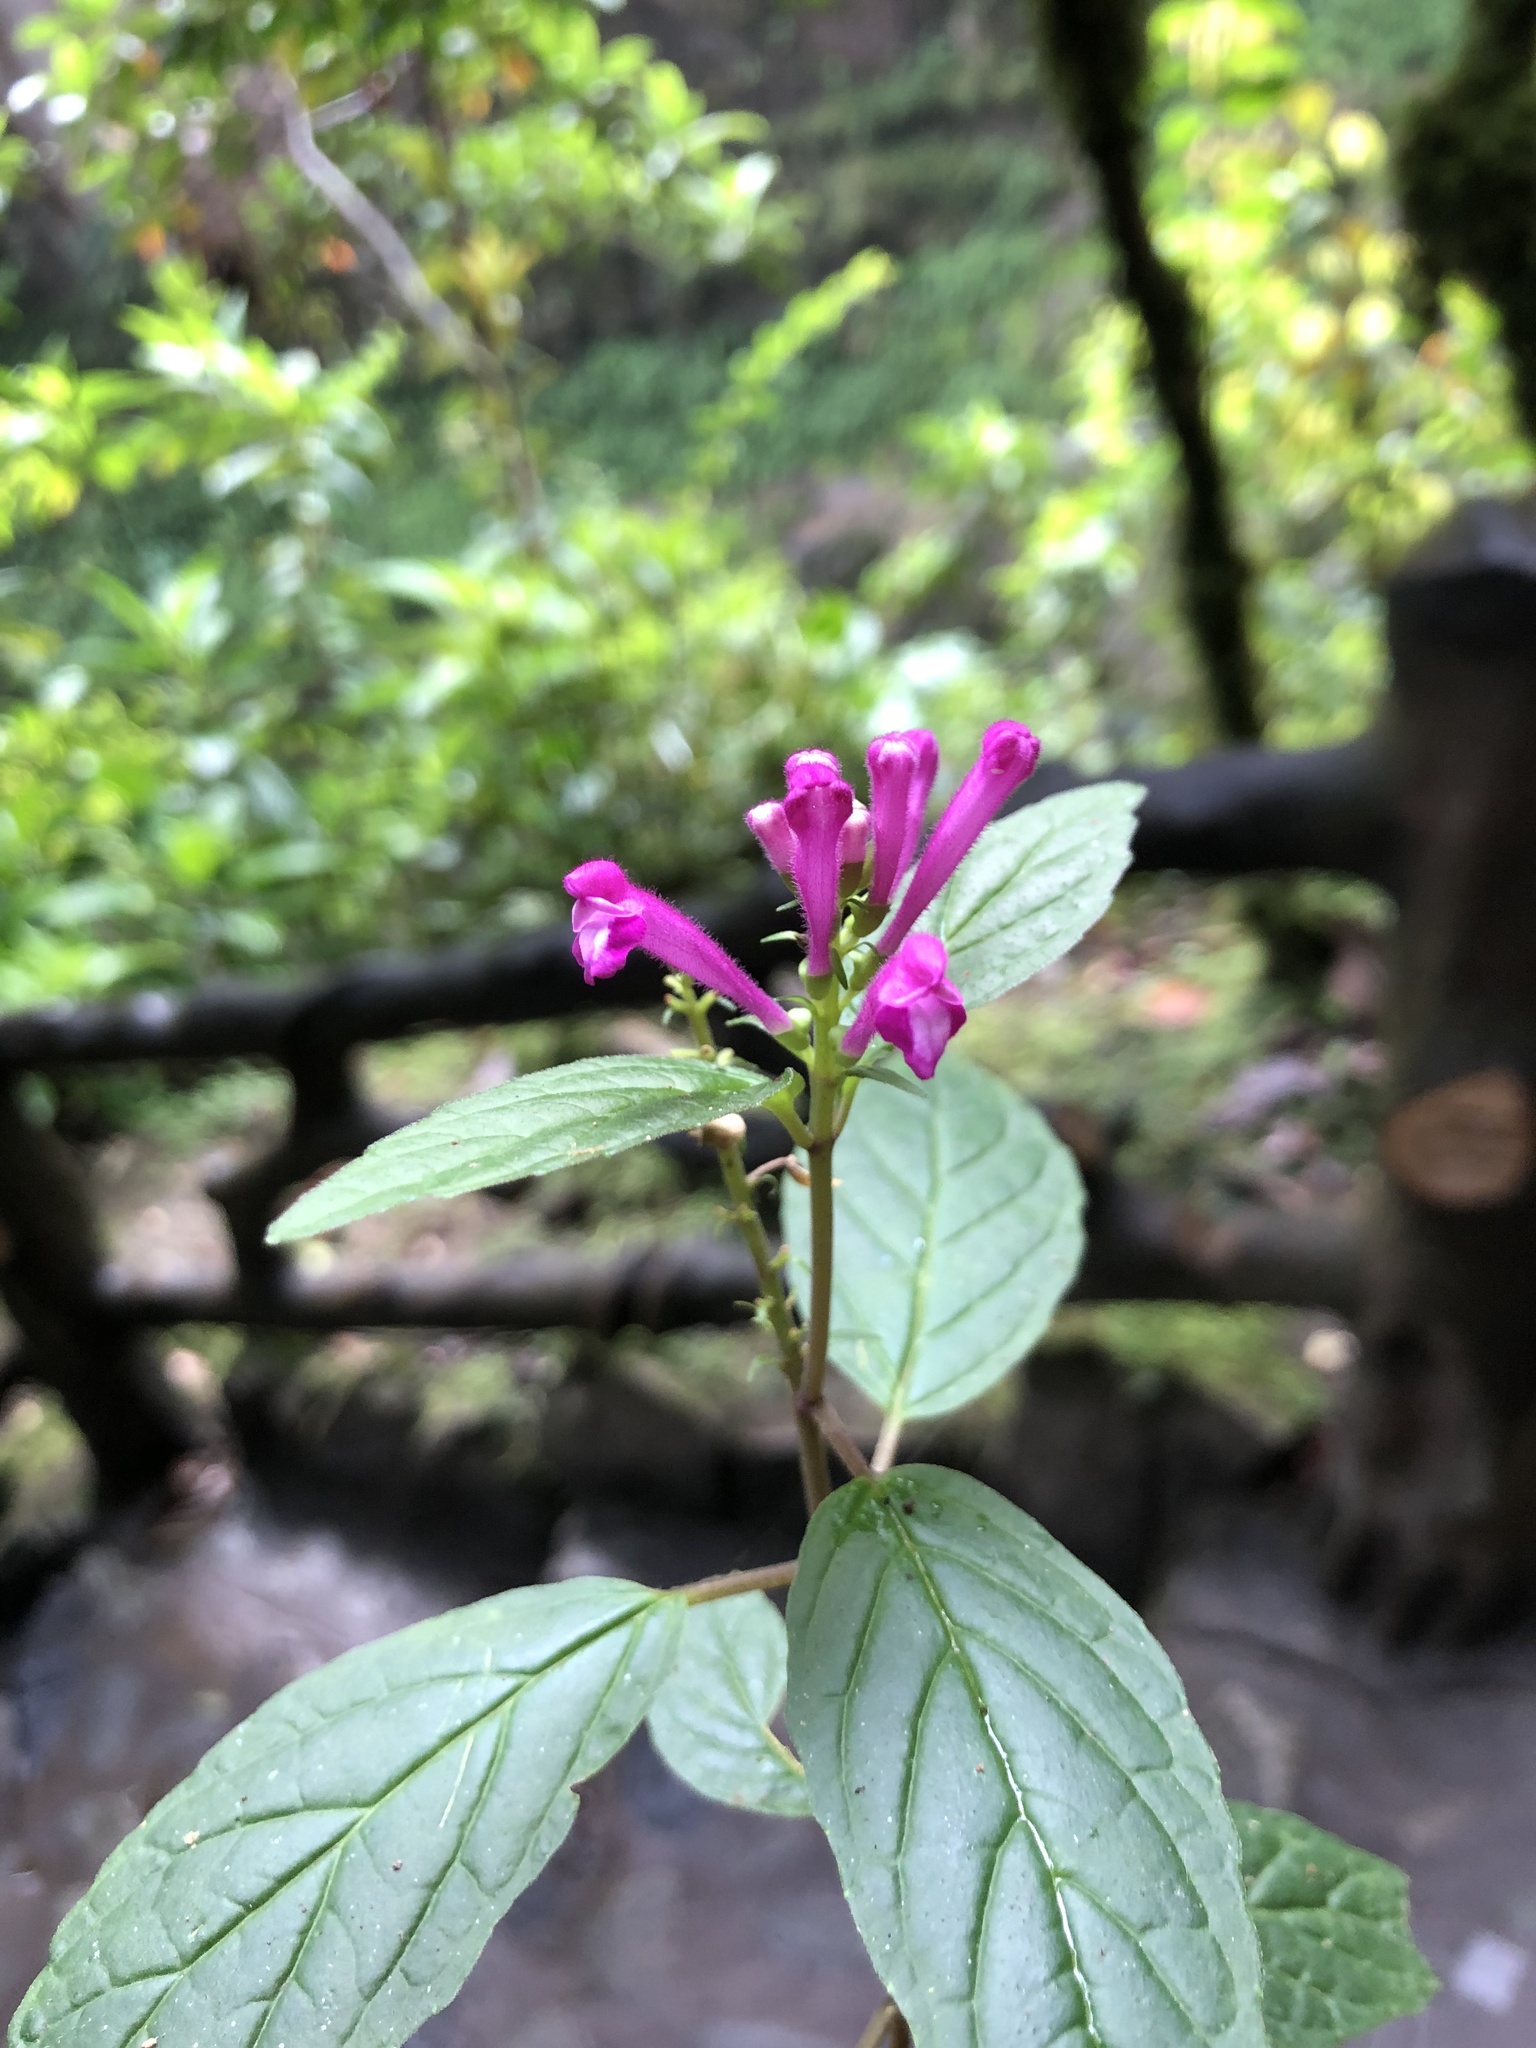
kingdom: Plantae
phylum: Tracheophyta
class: Magnoliopsida
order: Lamiales
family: Lamiaceae
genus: Scutellaria
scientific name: Scutellaria coccinea
